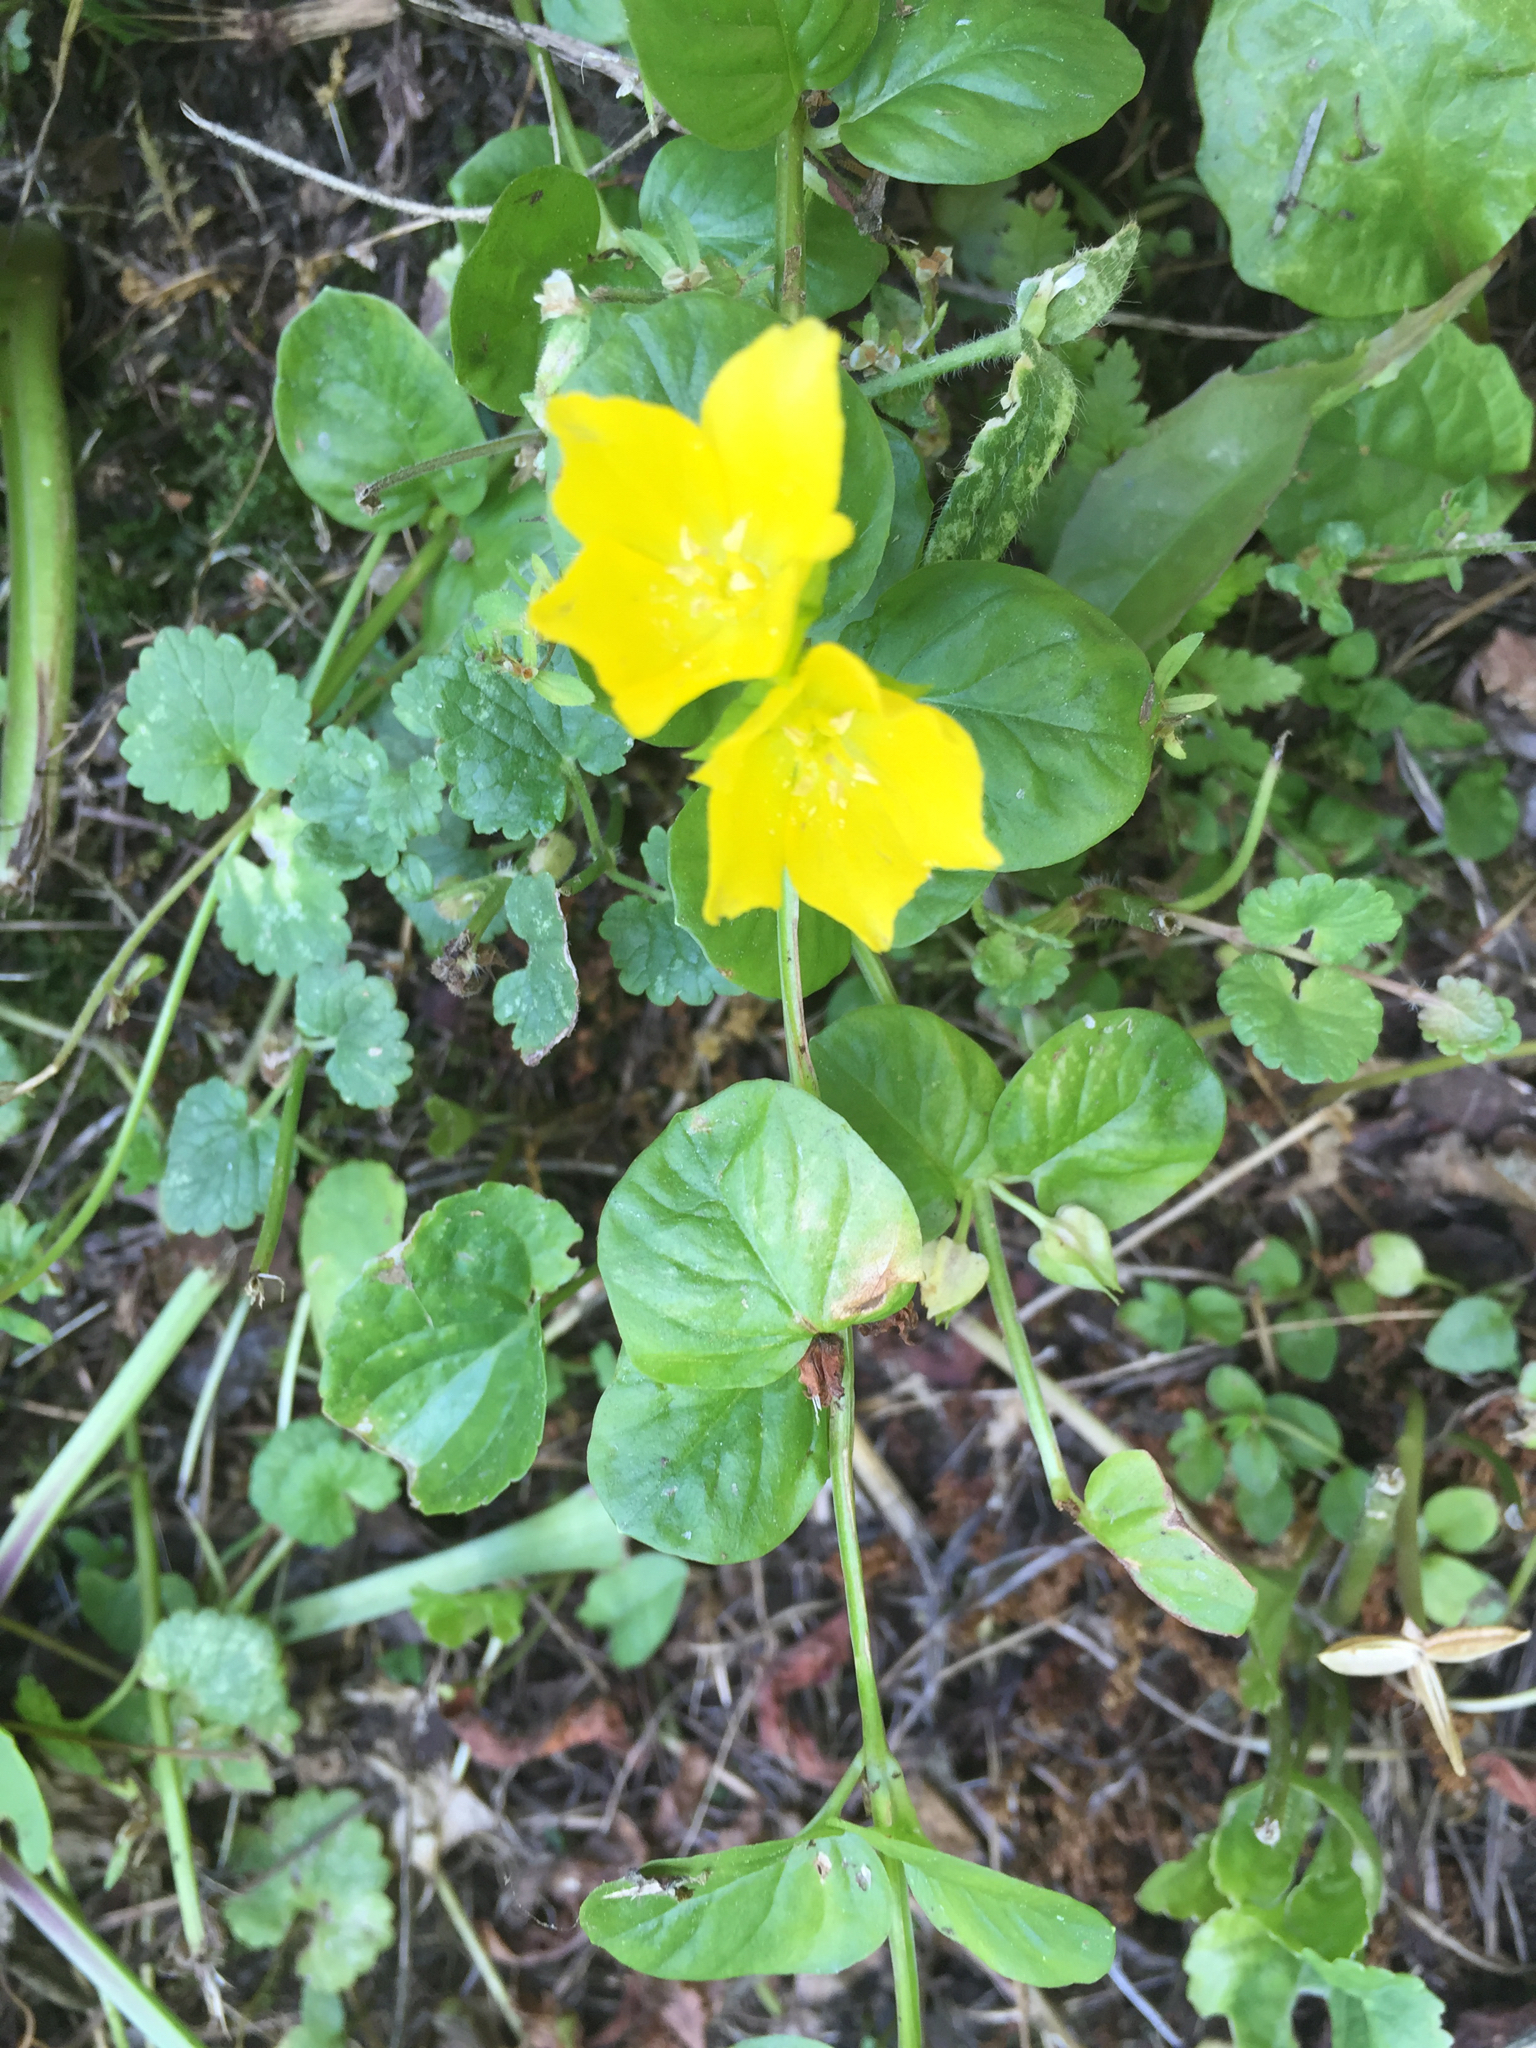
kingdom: Plantae
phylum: Tracheophyta
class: Magnoliopsida
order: Ericales
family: Primulaceae
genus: Lysimachia
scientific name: Lysimachia nummularia
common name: Moneywort
